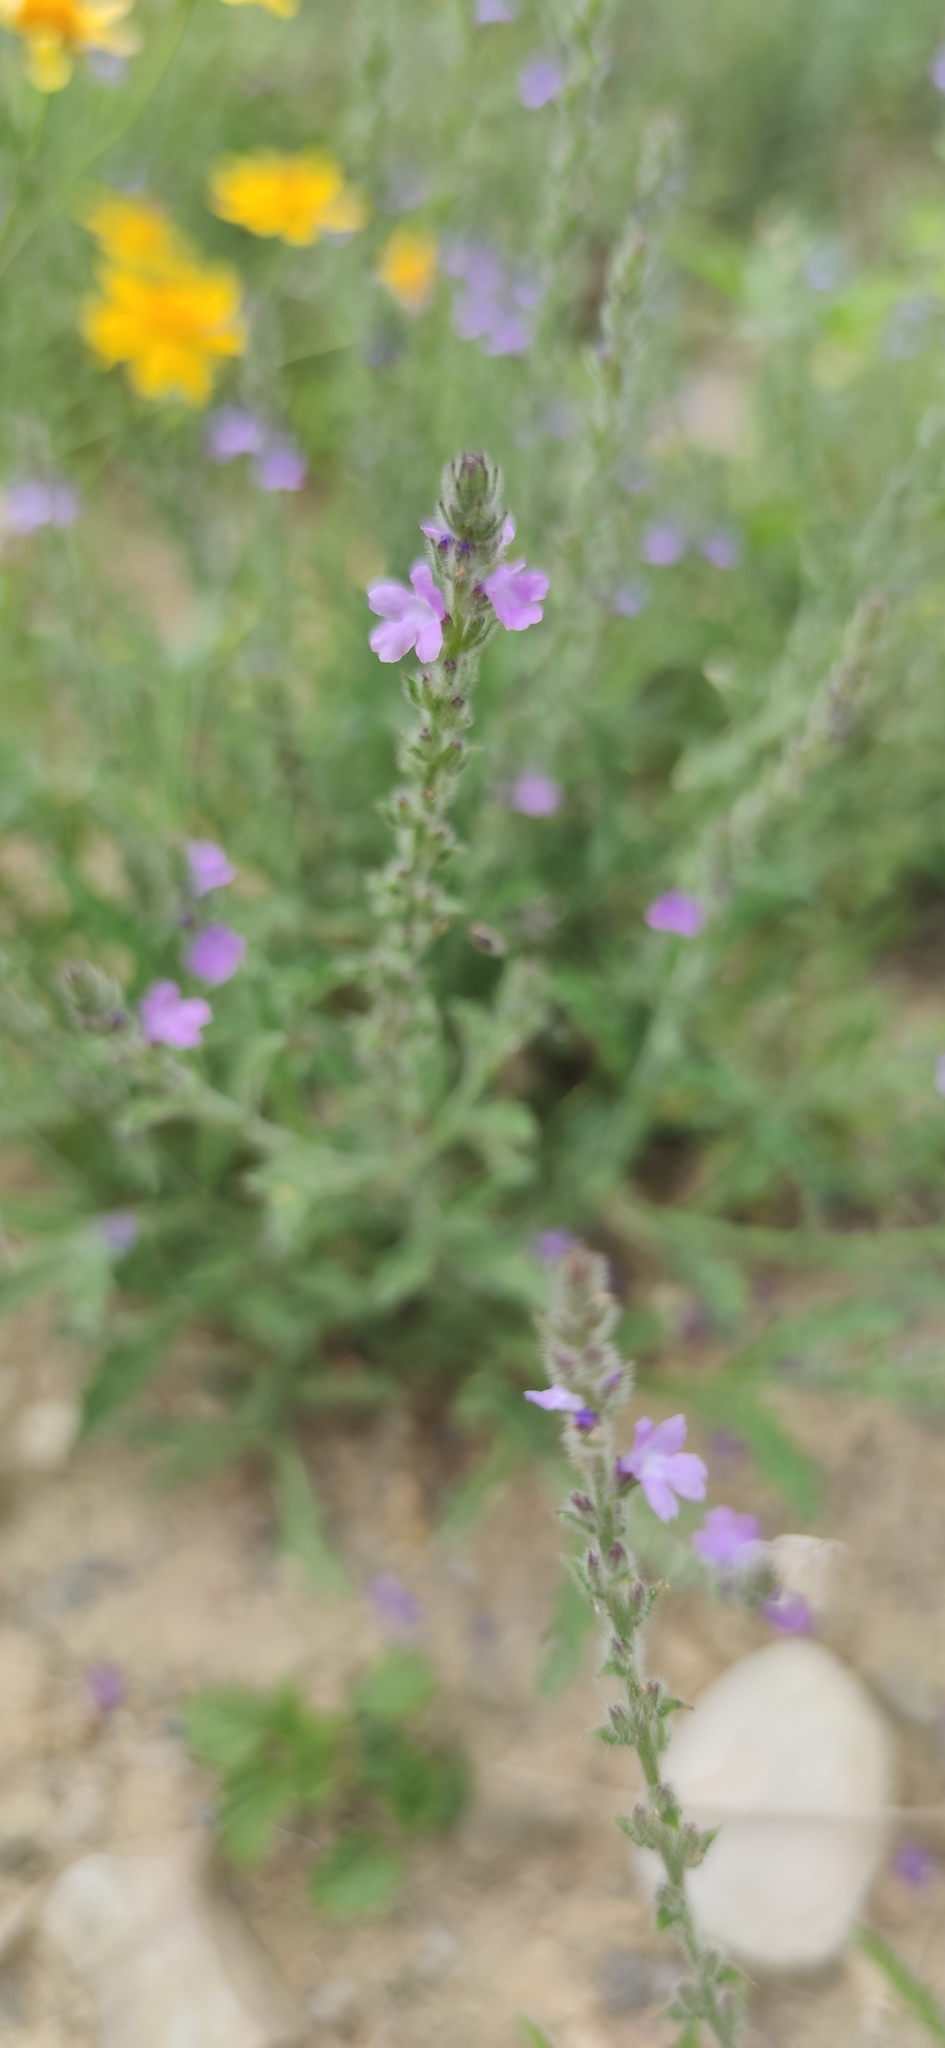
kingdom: Plantae
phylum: Tracheophyta
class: Magnoliopsida
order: Lamiales
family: Verbenaceae
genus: Verbena
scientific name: Verbena canescens
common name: Gray vervain
